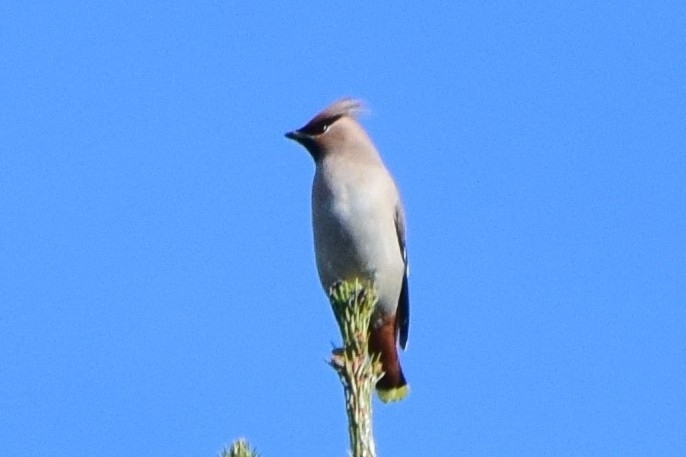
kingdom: Animalia
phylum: Chordata
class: Aves
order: Passeriformes
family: Bombycillidae
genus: Bombycilla
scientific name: Bombycilla garrulus
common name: Bohemian waxwing
